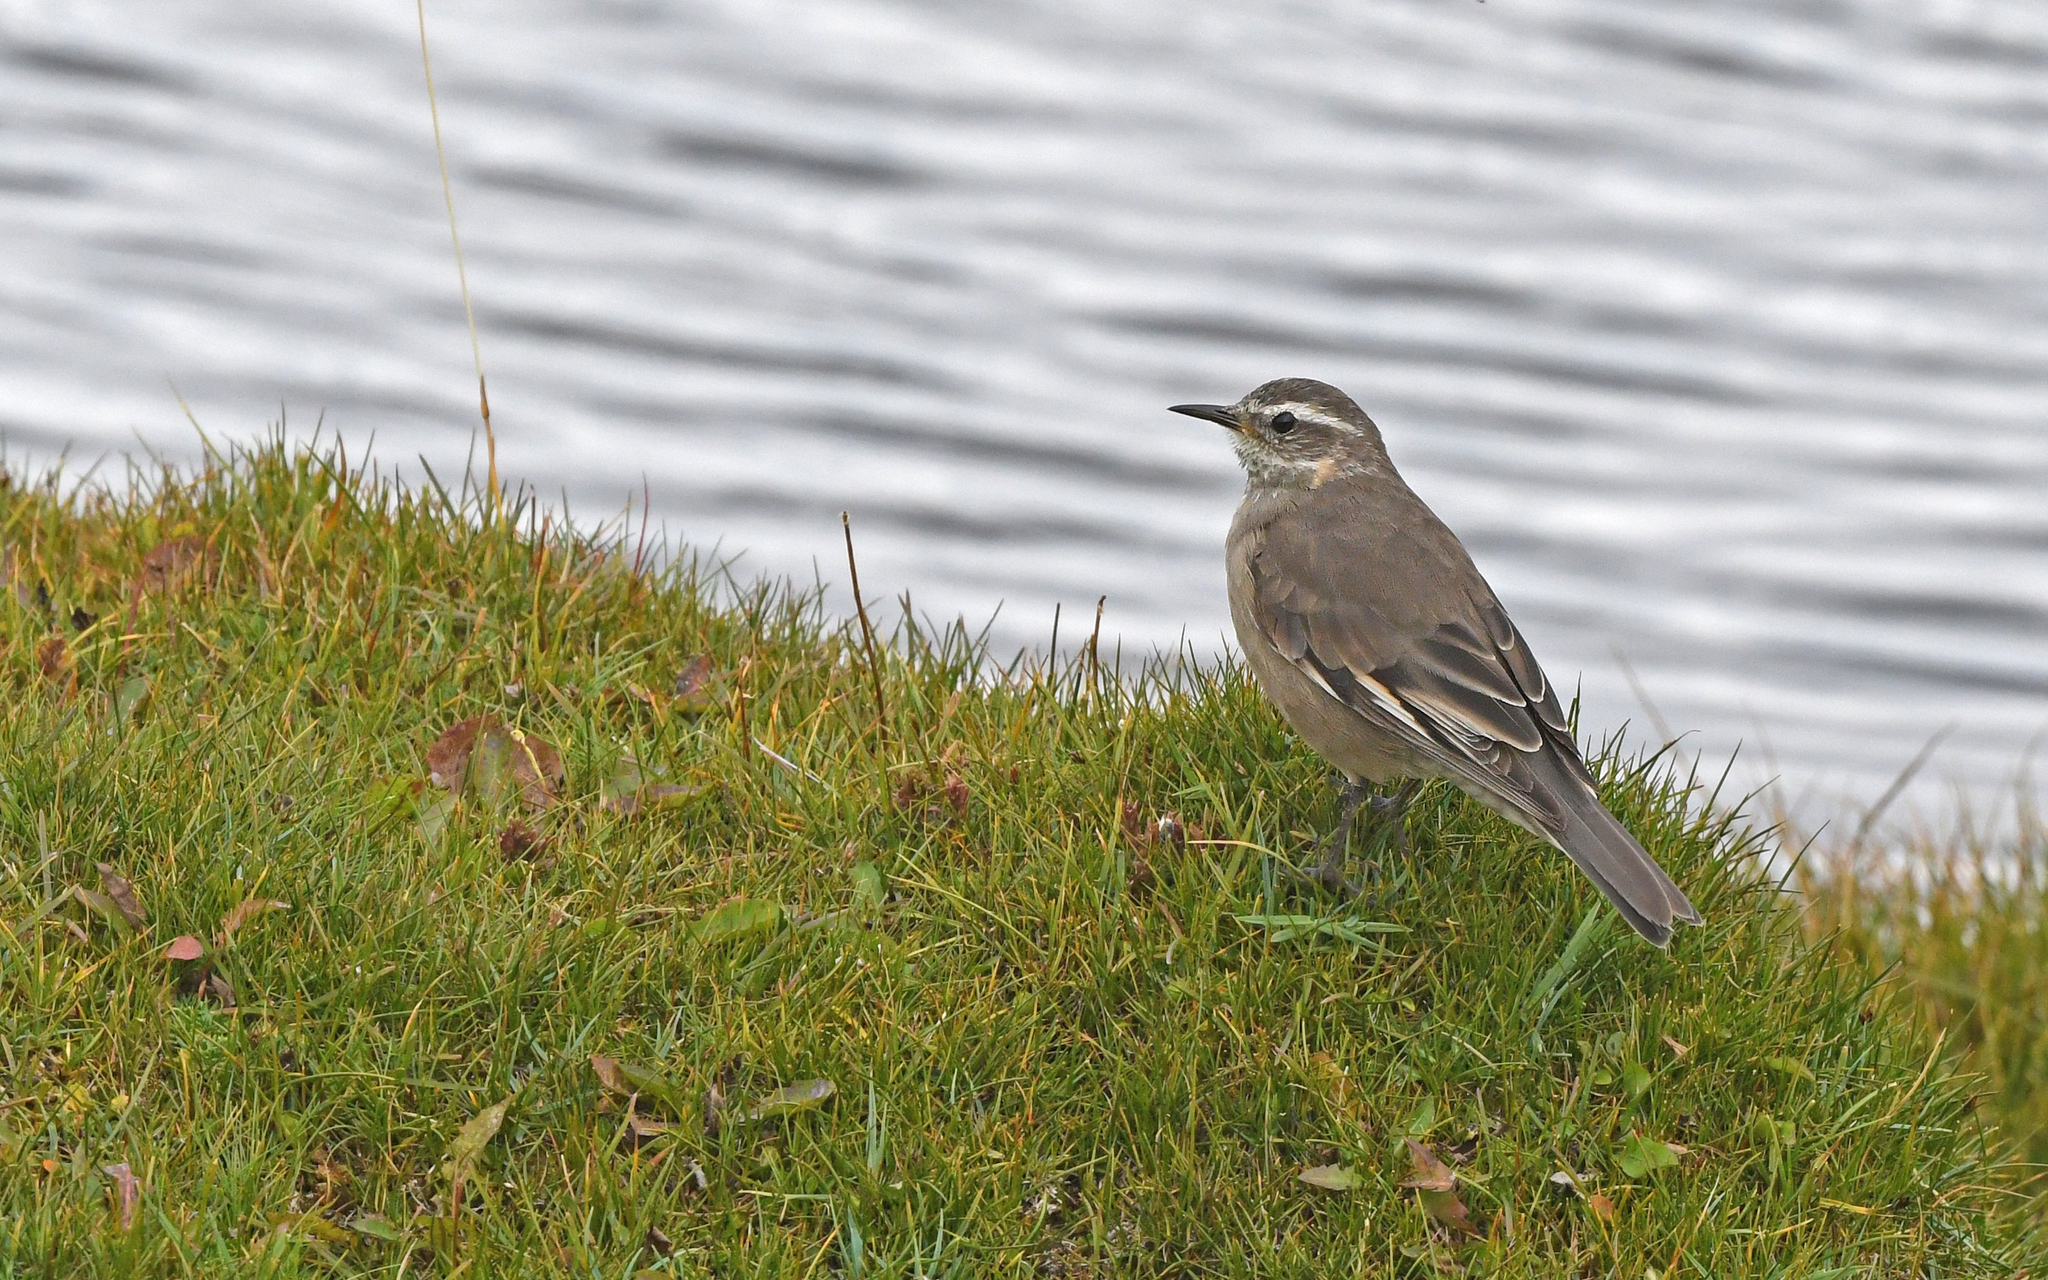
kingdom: Animalia
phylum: Chordata
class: Aves
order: Passeriformes
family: Furnariidae
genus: Cinclodes
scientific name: Cinclodes fuscus
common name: Buff-winged cinclodes
